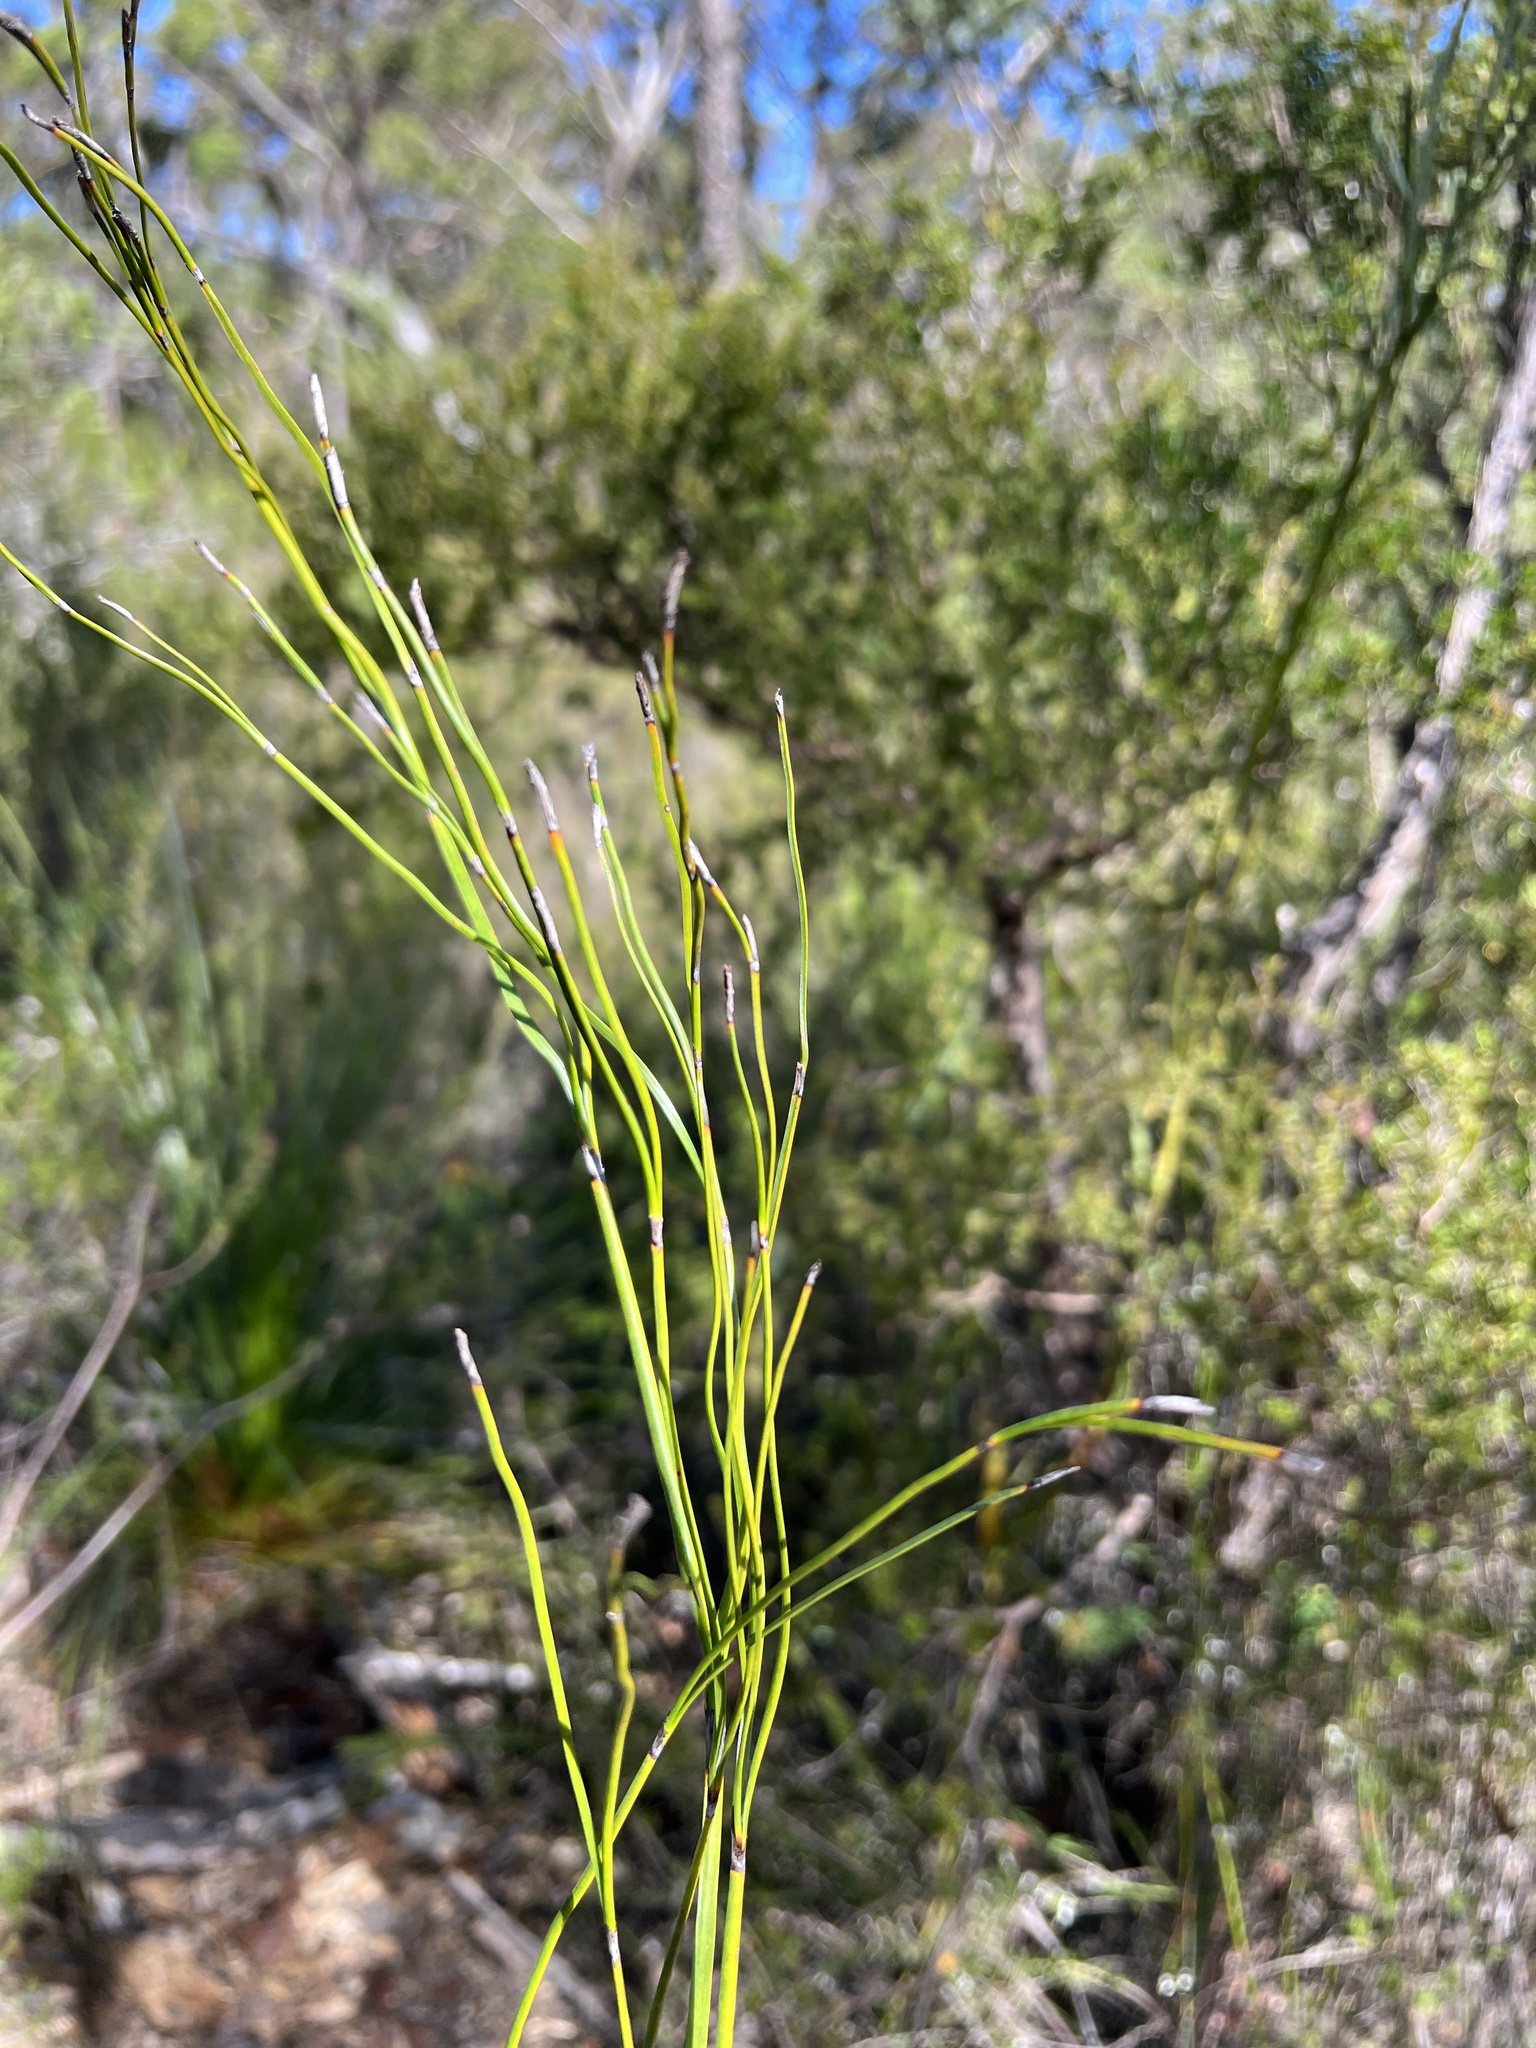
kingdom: Plantae
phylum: Tracheophyta
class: Liliopsida
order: Poales
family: Cyperaceae
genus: Caustis
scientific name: Caustis pentandra
